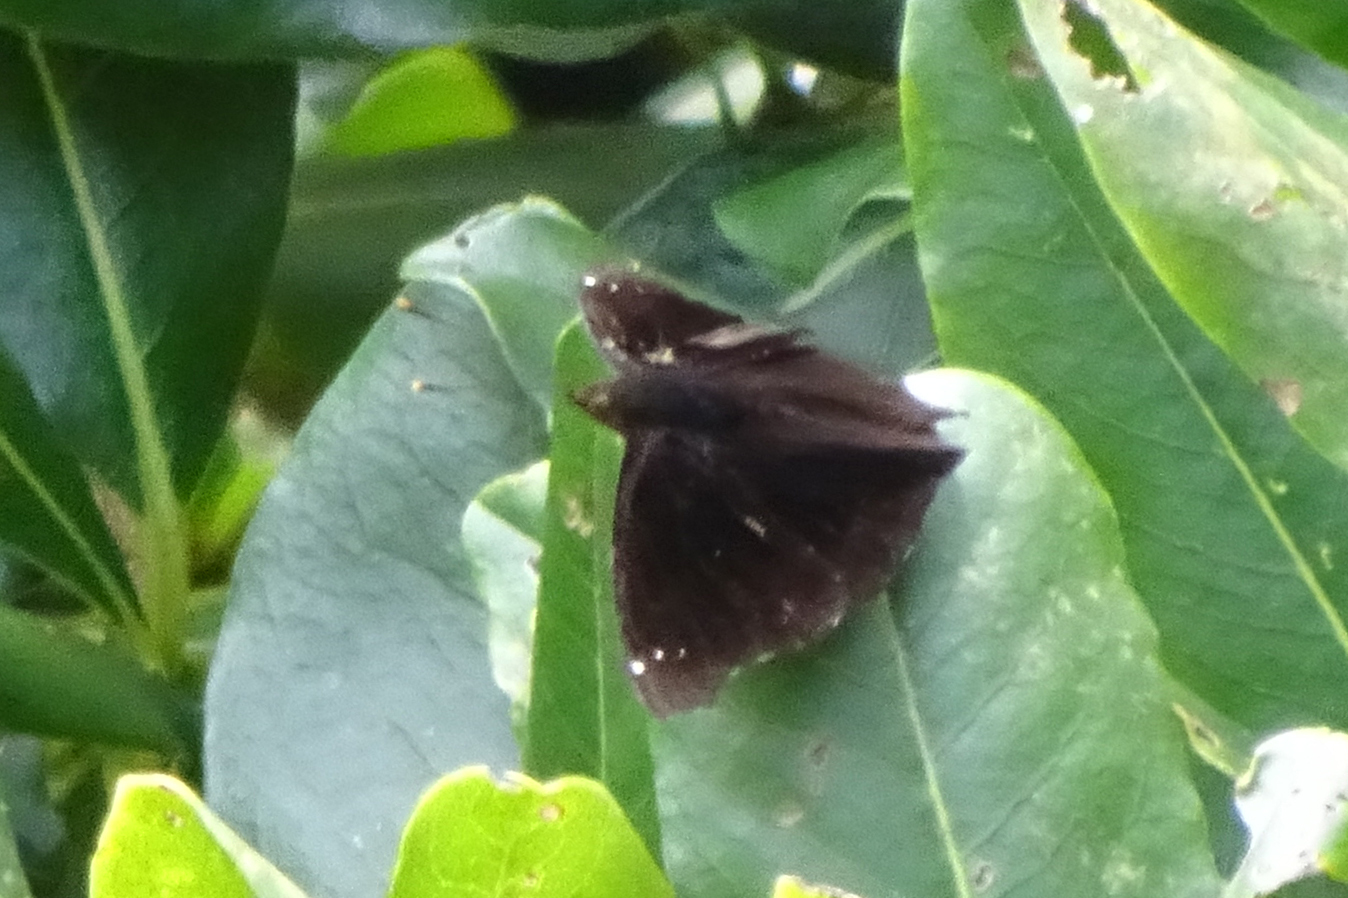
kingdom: Animalia
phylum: Arthropoda
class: Insecta
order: Lepidoptera
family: Nymphalidae
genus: Apatura
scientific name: Apatura Rohana spec
